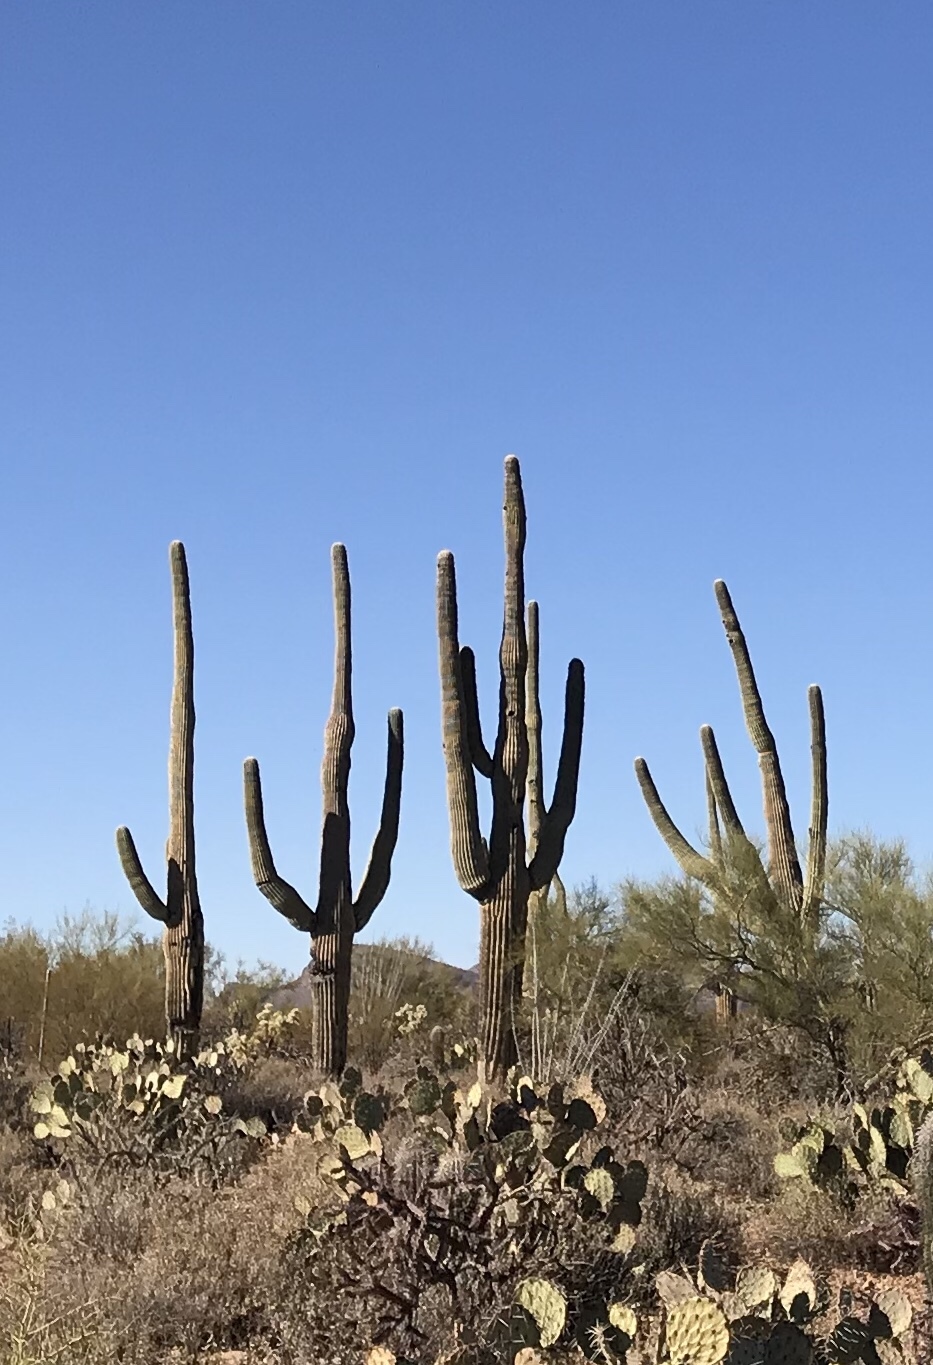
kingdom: Plantae
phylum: Tracheophyta
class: Magnoliopsida
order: Caryophyllales
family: Cactaceae
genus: Carnegiea
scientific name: Carnegiea gigantea
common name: Saguaro
